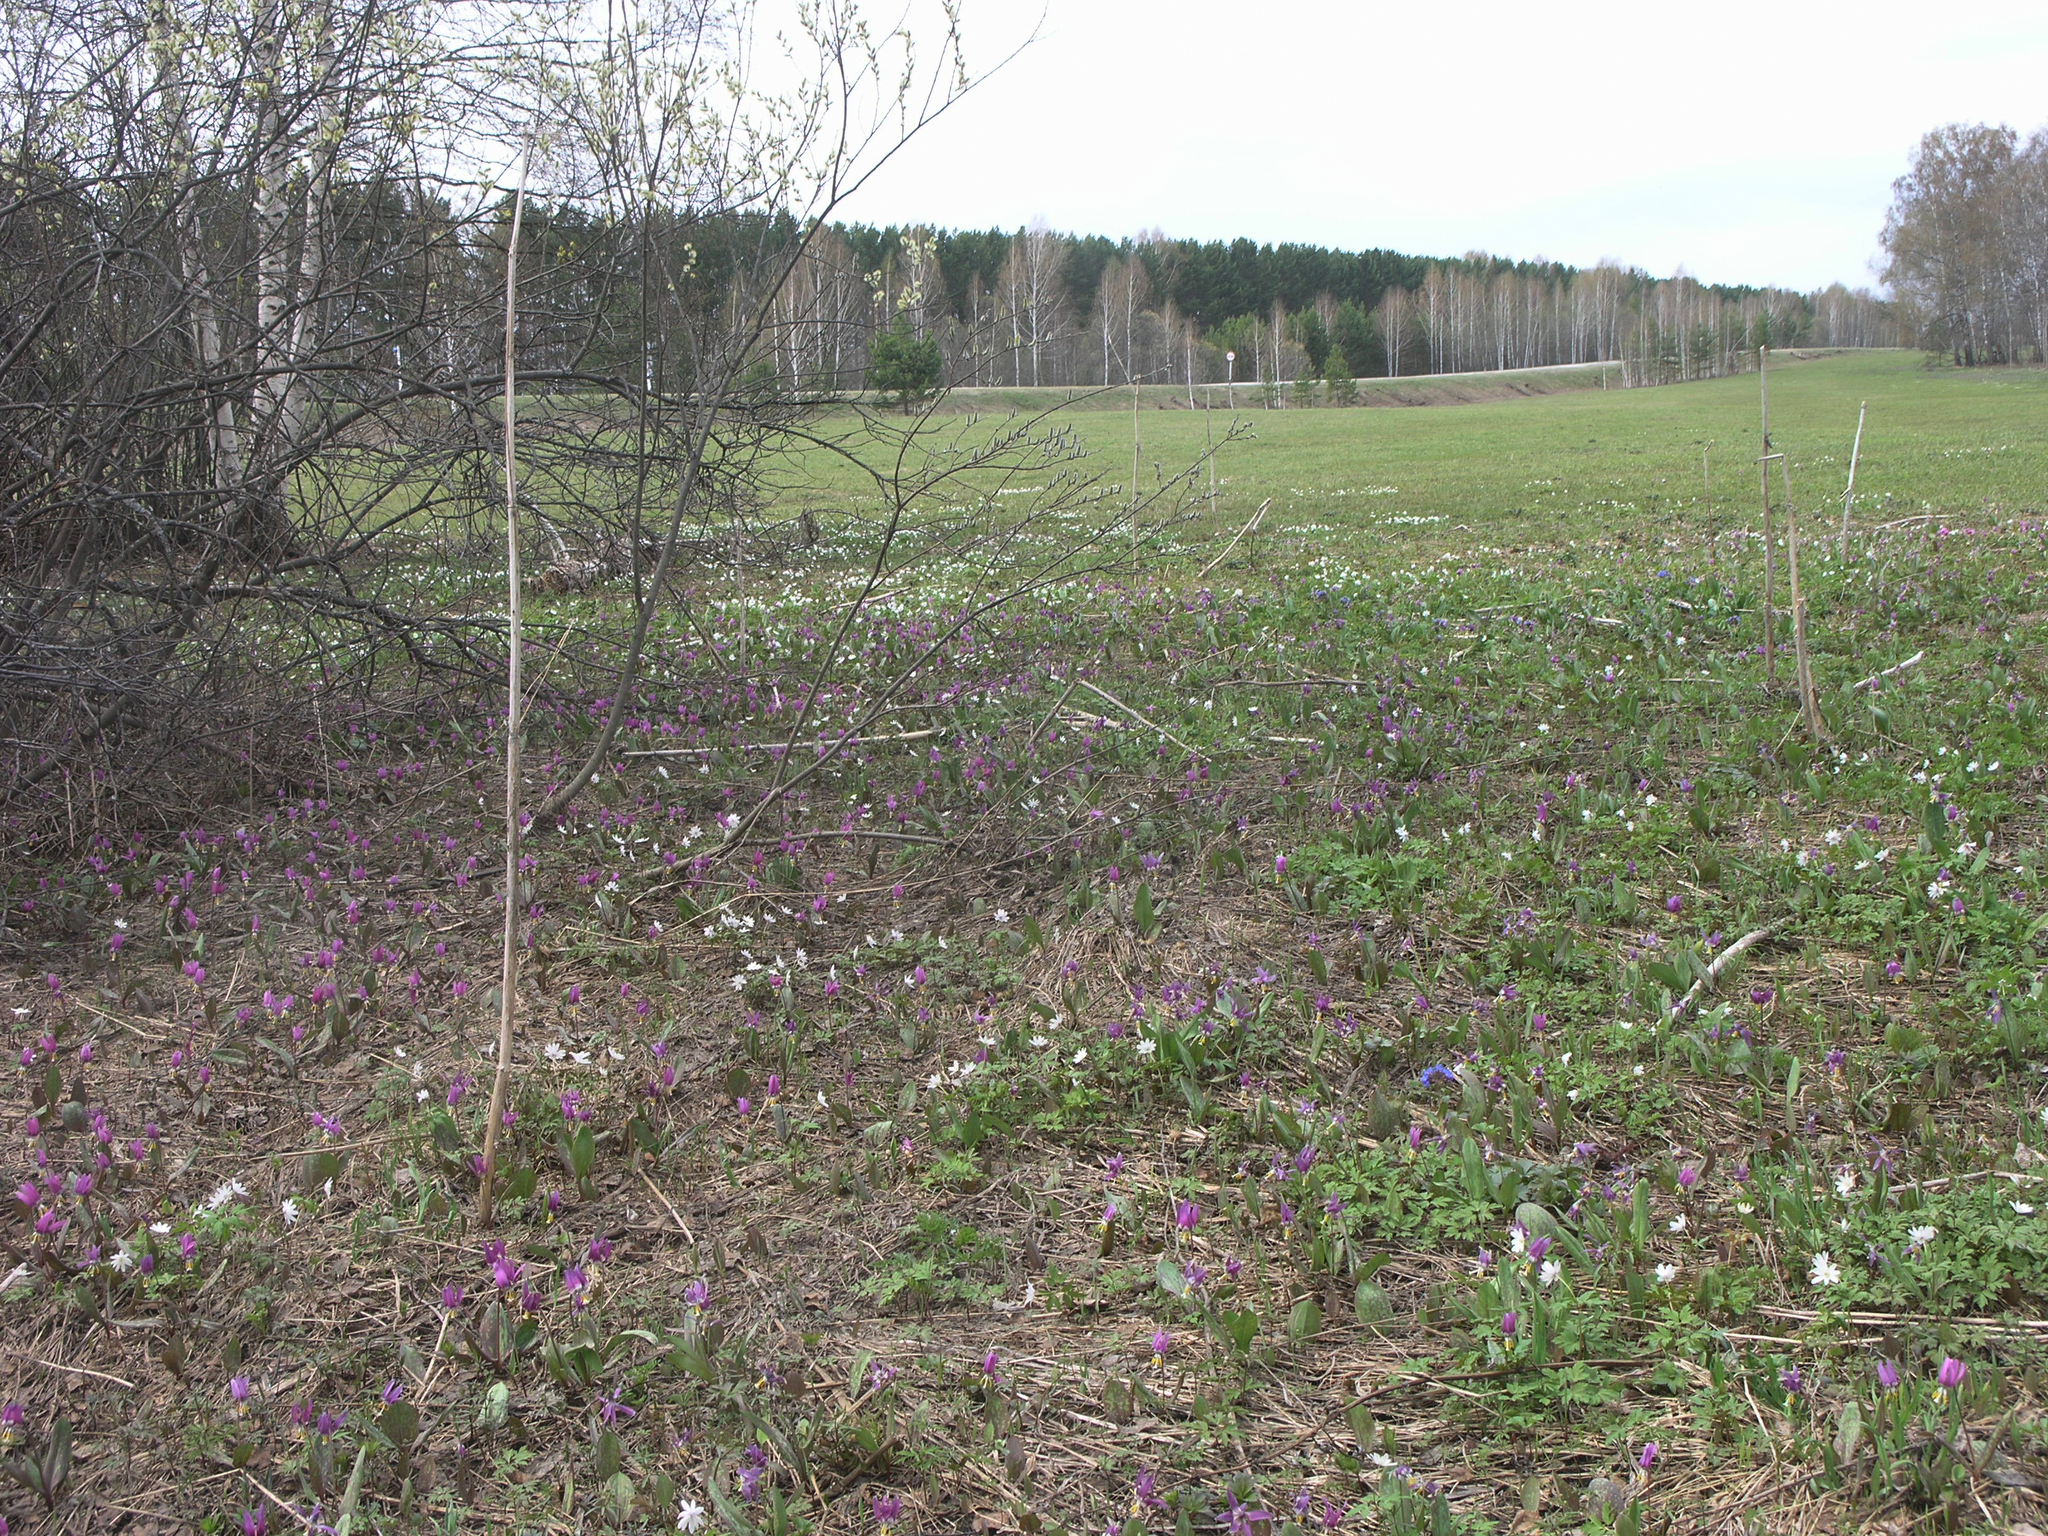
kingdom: Plantae
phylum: Tracheophyta
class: Magnoliopsida
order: Ranunculales
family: Ranunculaceae
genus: Anemone
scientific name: Anemone altaica
